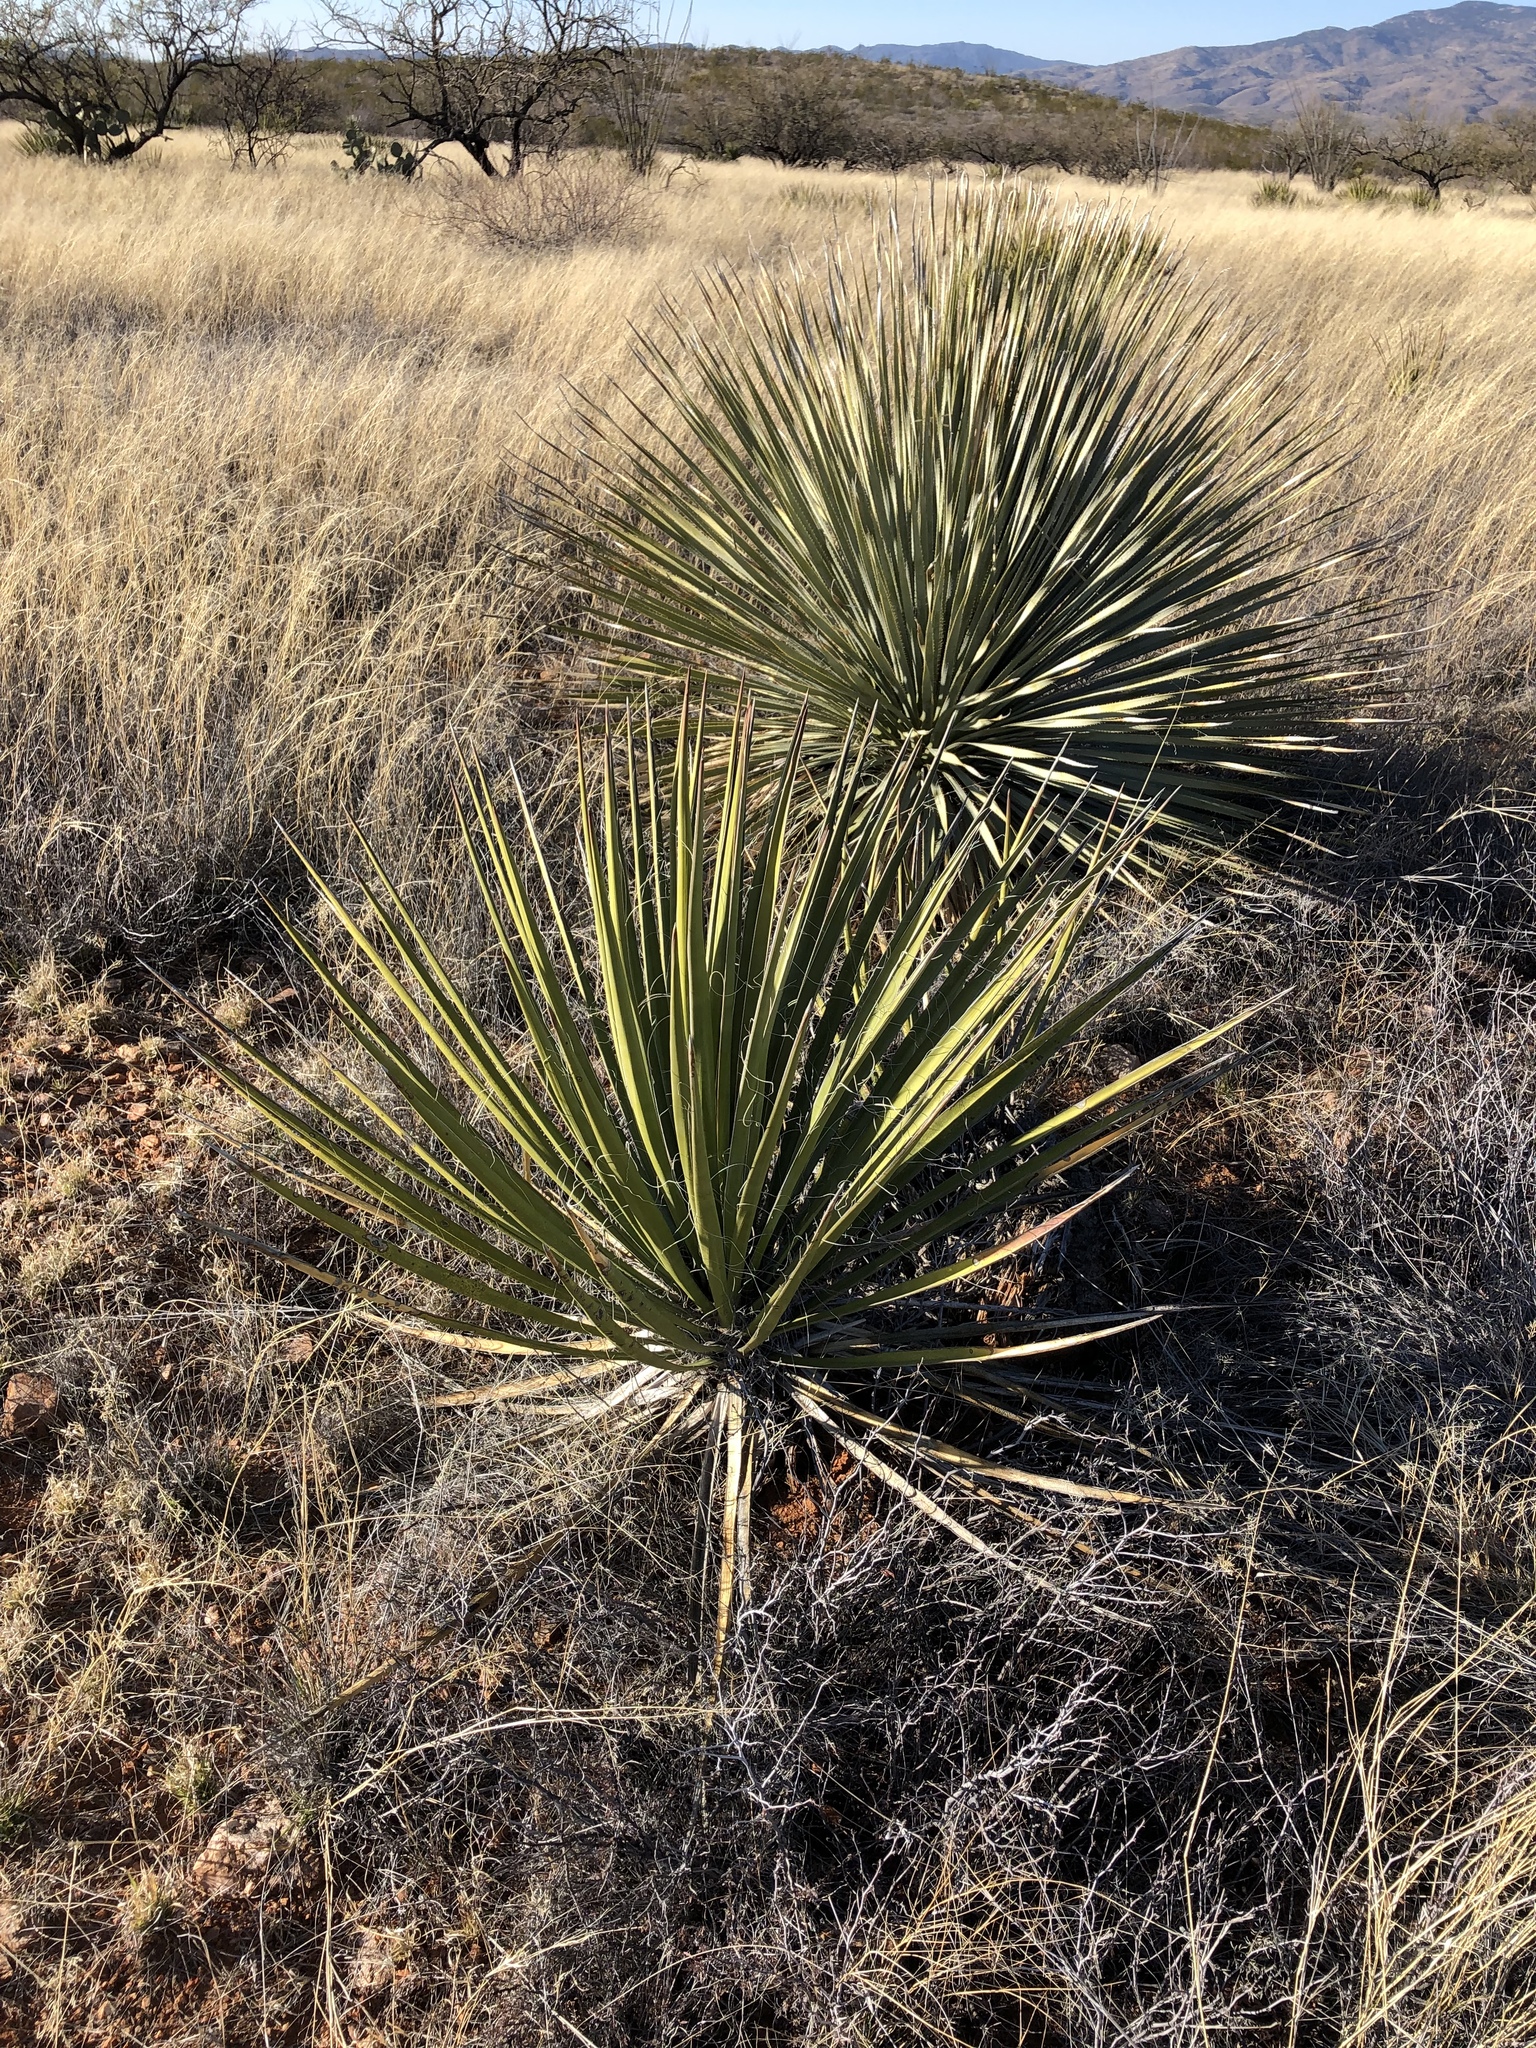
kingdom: Plantae
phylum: Tracheophyta
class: Liliopsida
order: Asparagales
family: Asparagaceae
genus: Yucca
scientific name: Yucca elata
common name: Palmella
